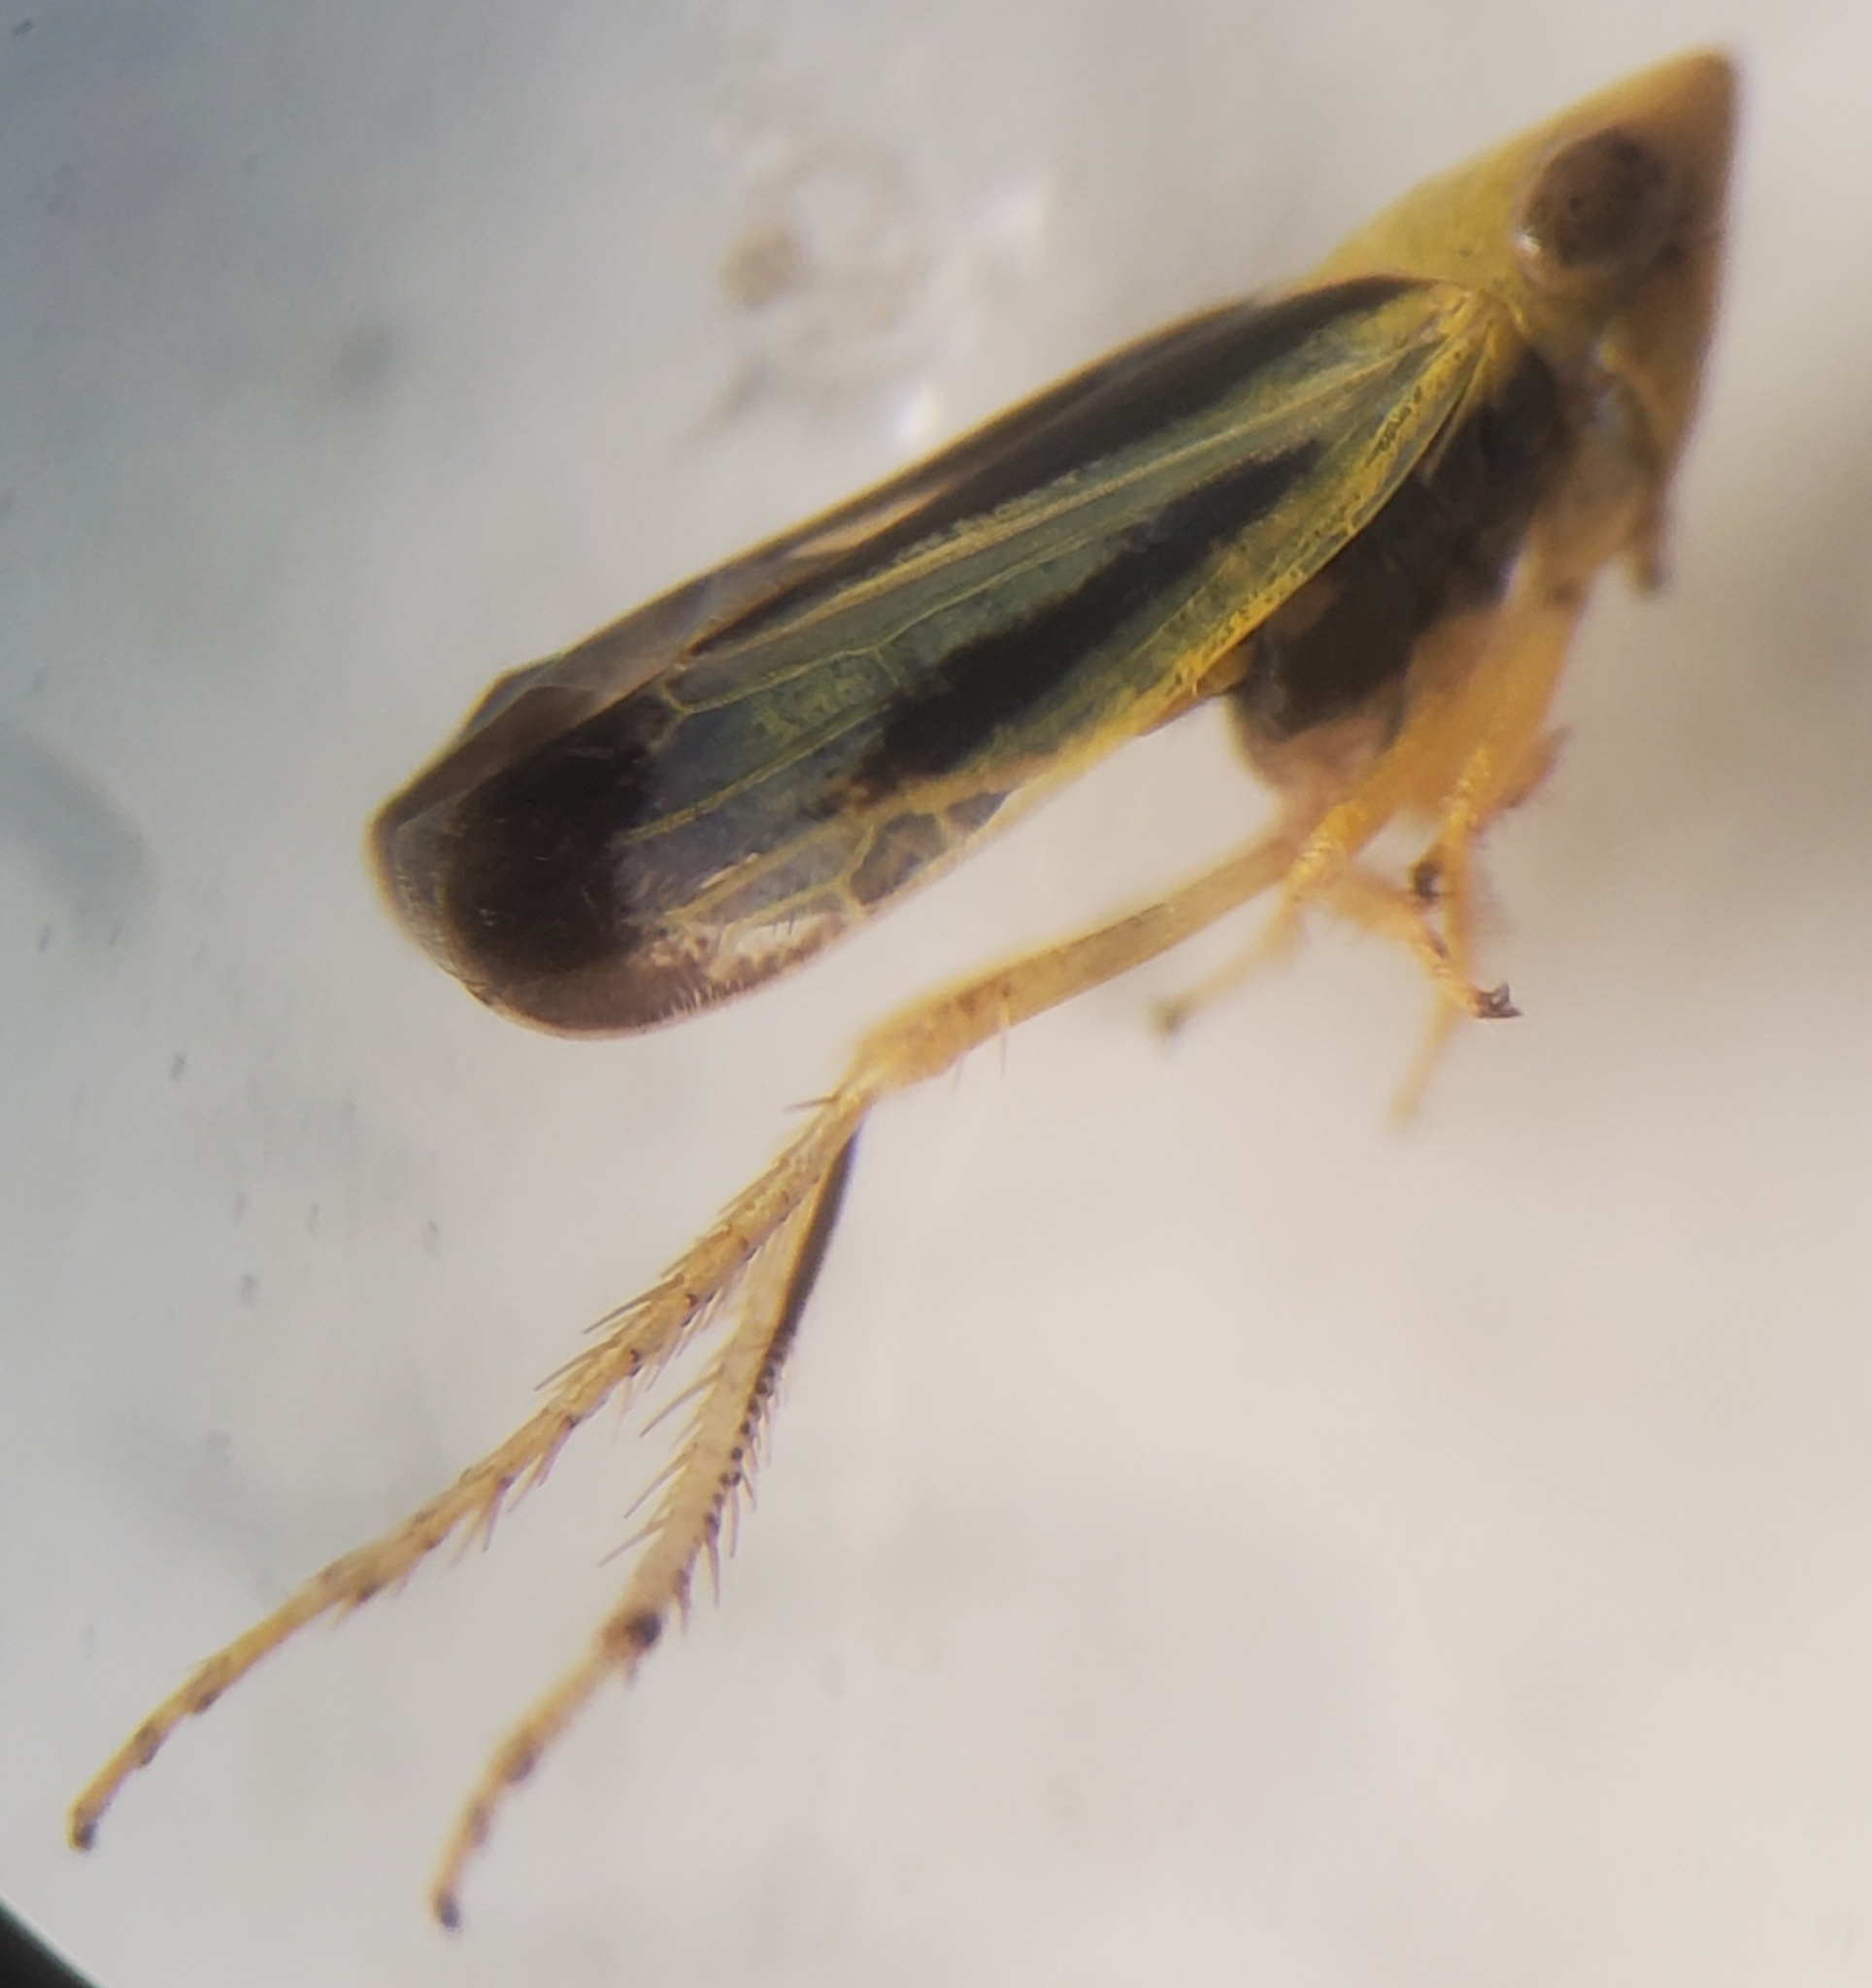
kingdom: Animalia
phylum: Arthropoda
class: Insecta
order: Hemiptera
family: Cicadellidae
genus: Sorhoanus
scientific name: Sorhoanus orientalis
